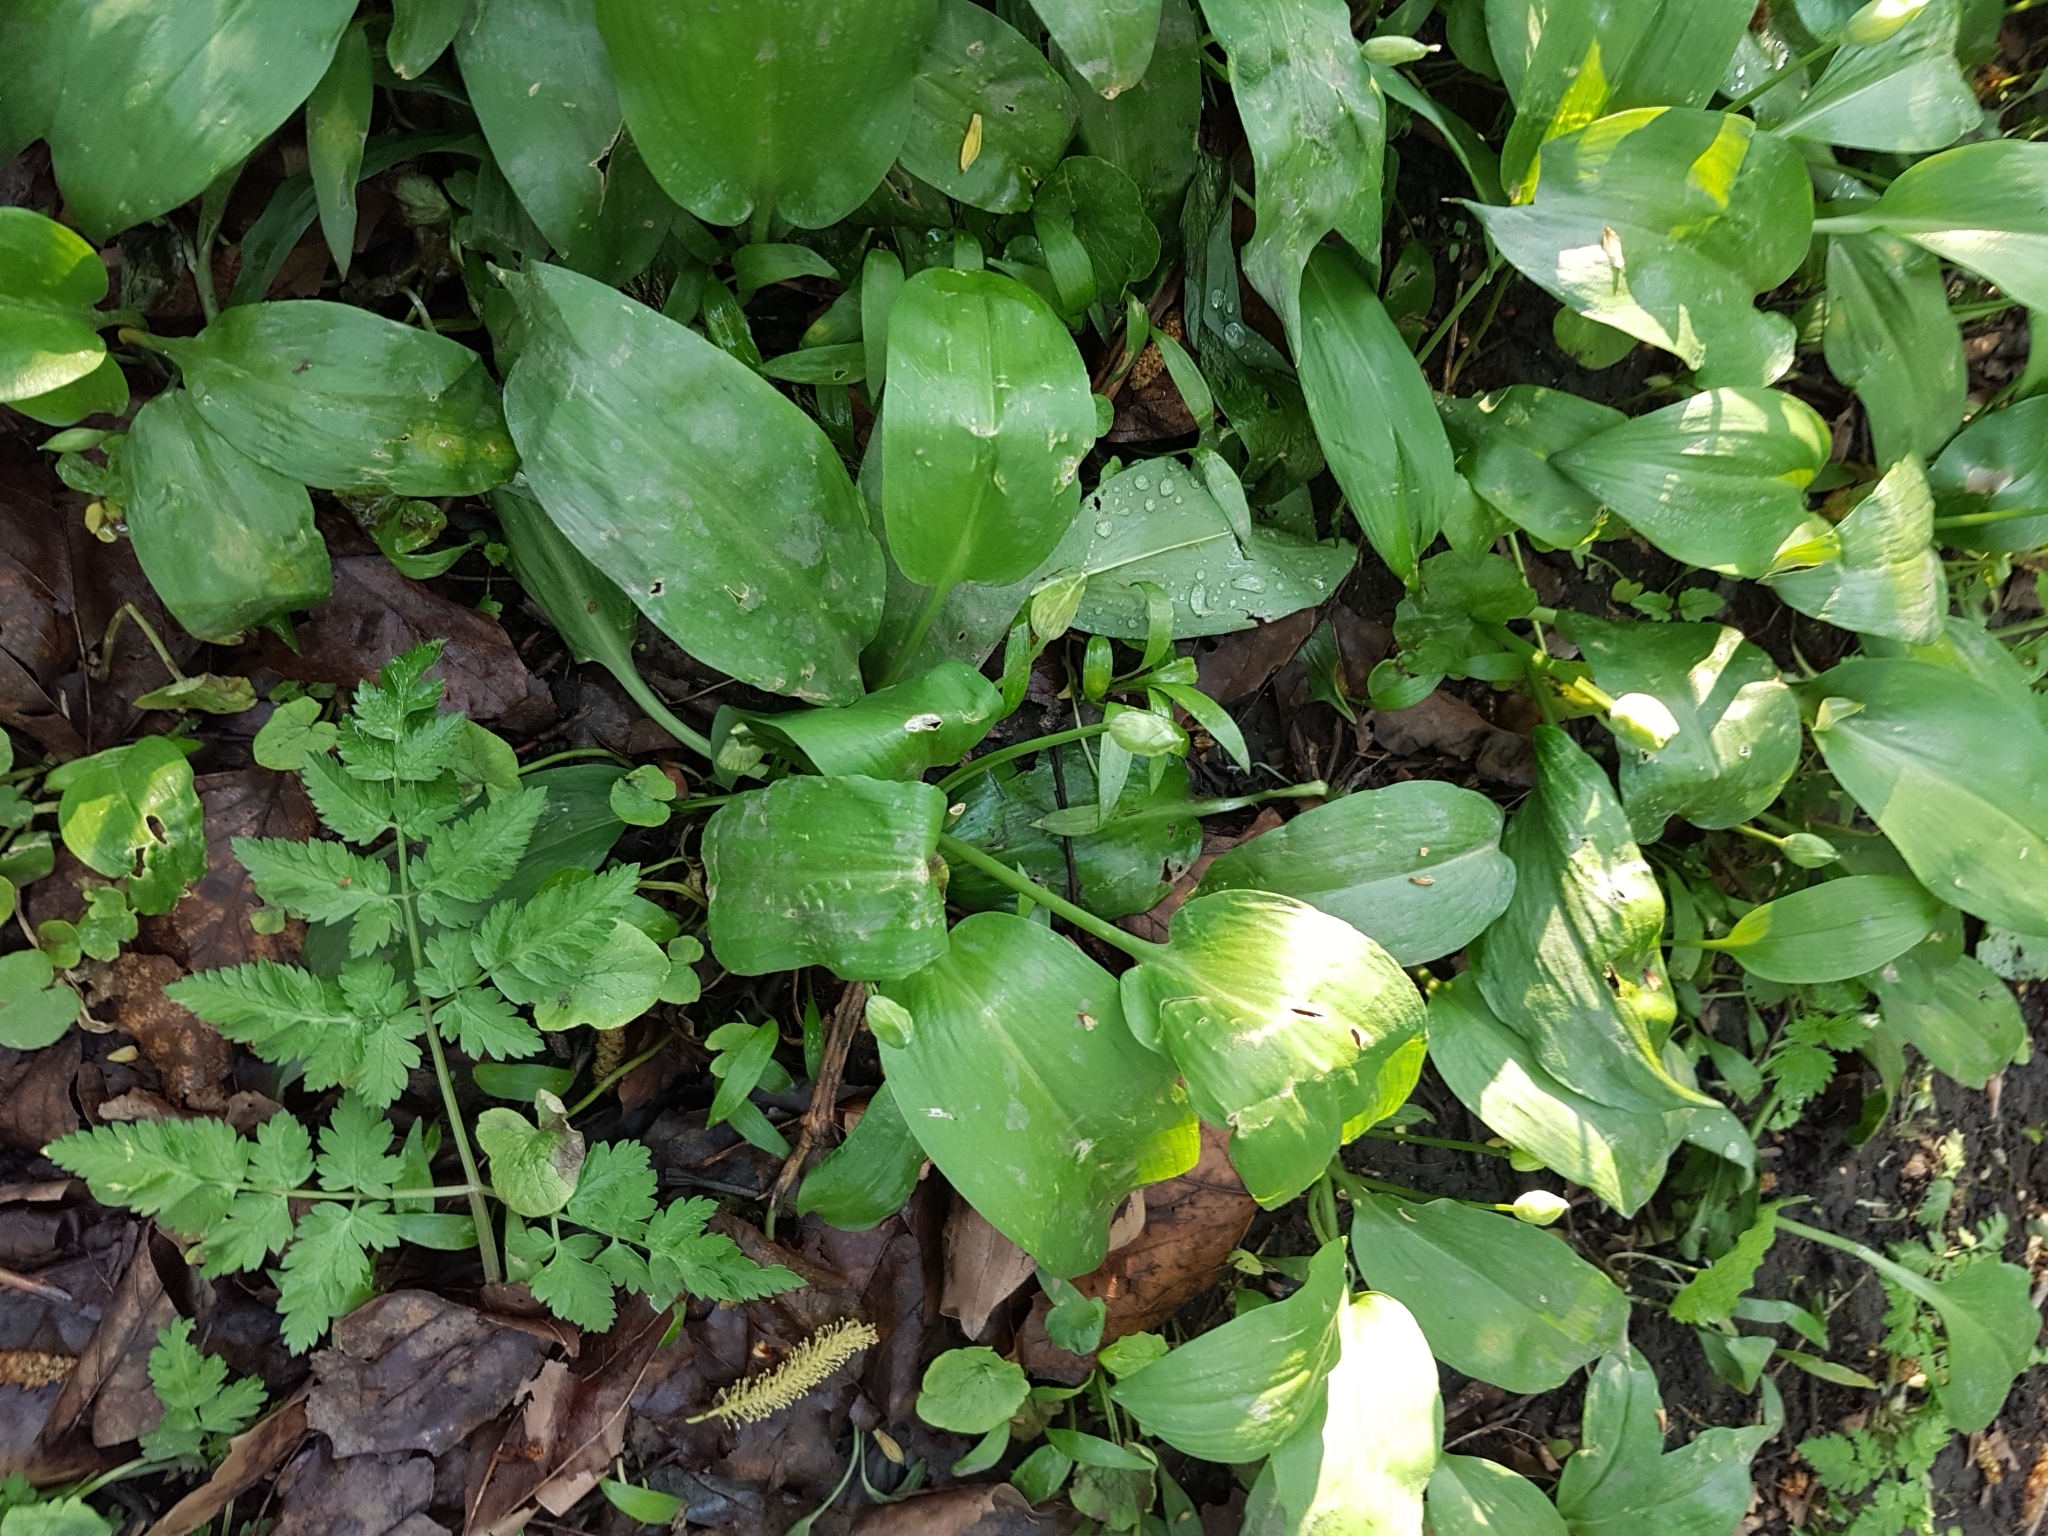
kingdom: Plantae
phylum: Tracheophyta
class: Liliopsida
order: Asparagales
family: Amaryllidaceae
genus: Allium
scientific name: Allium ursinum
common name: Ramsons
